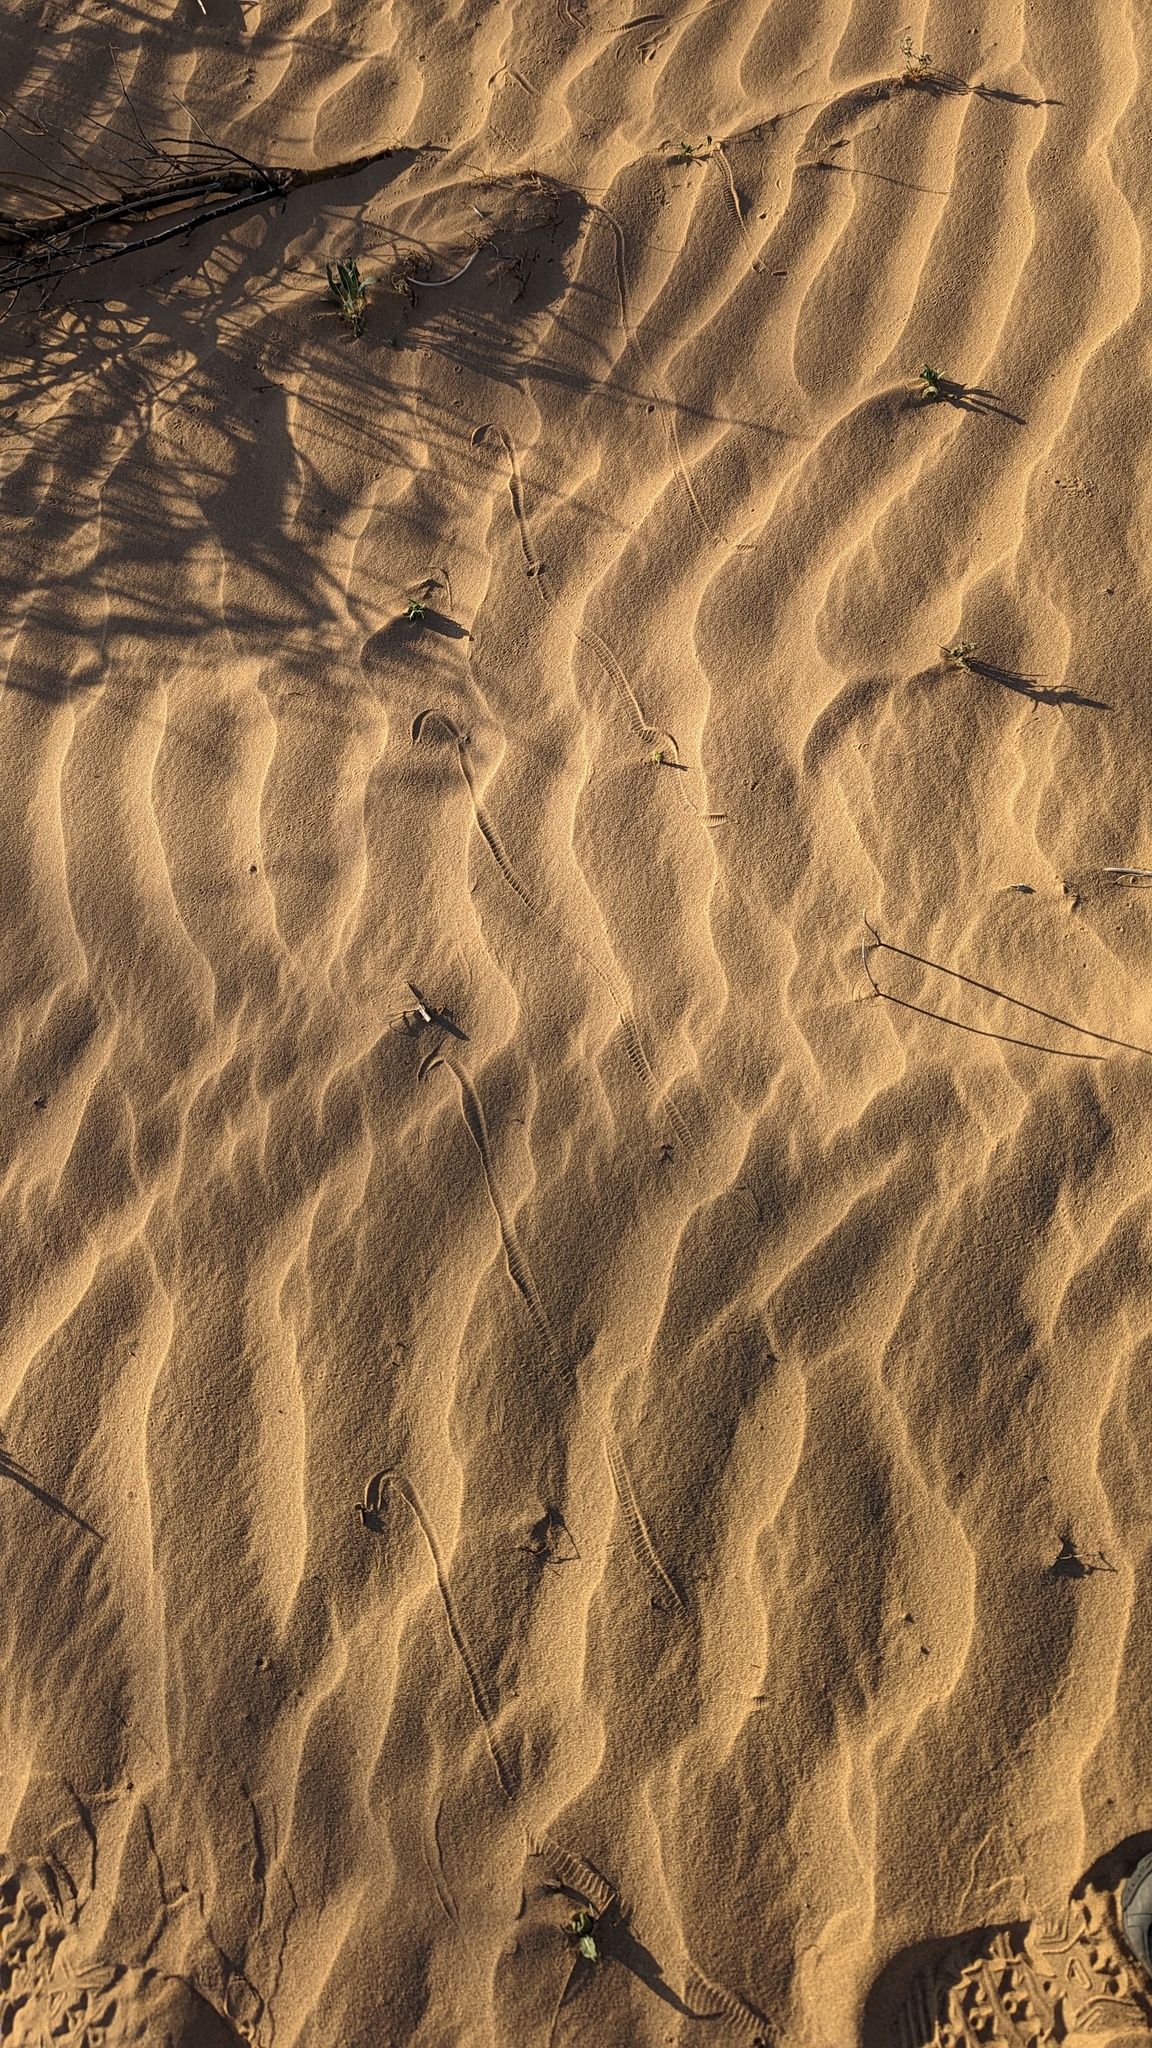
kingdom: Animalia
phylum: Chordata
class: Squamata
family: Viperidae
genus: Crotalus
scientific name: Crotalus cerastes
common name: Sidewinder
